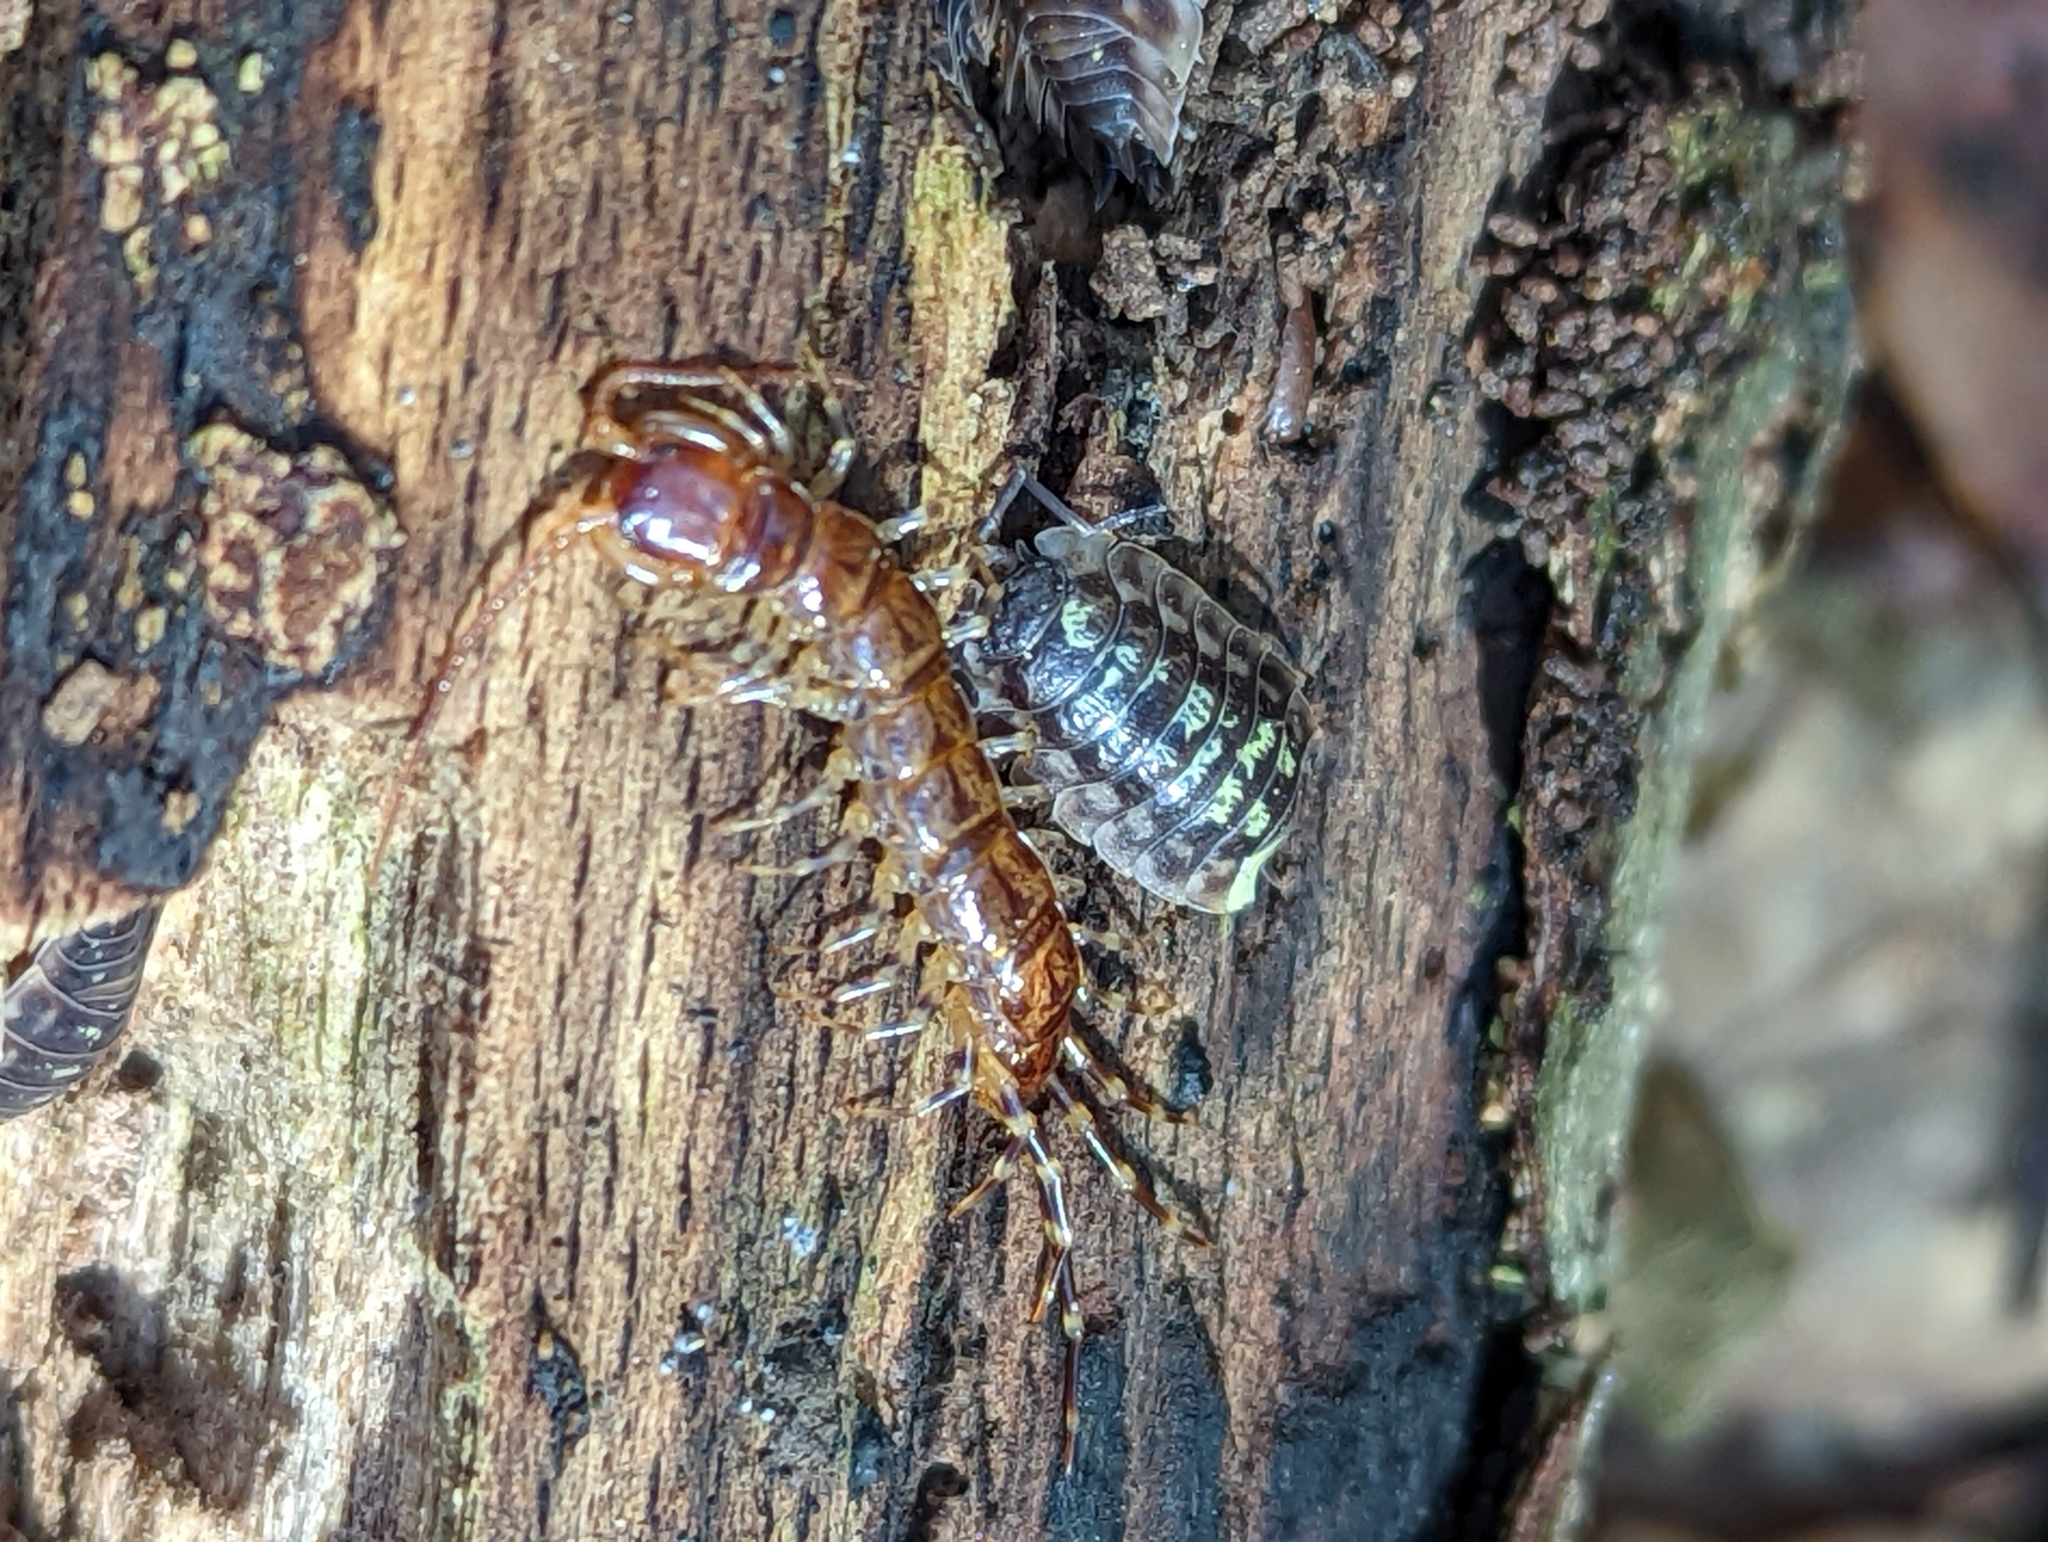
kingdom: Animalia
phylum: Arthropoda
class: Chilopoda
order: Lithobiomorpha
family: Lithobiidae
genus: Lithobius
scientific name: Lithobius variegatus
